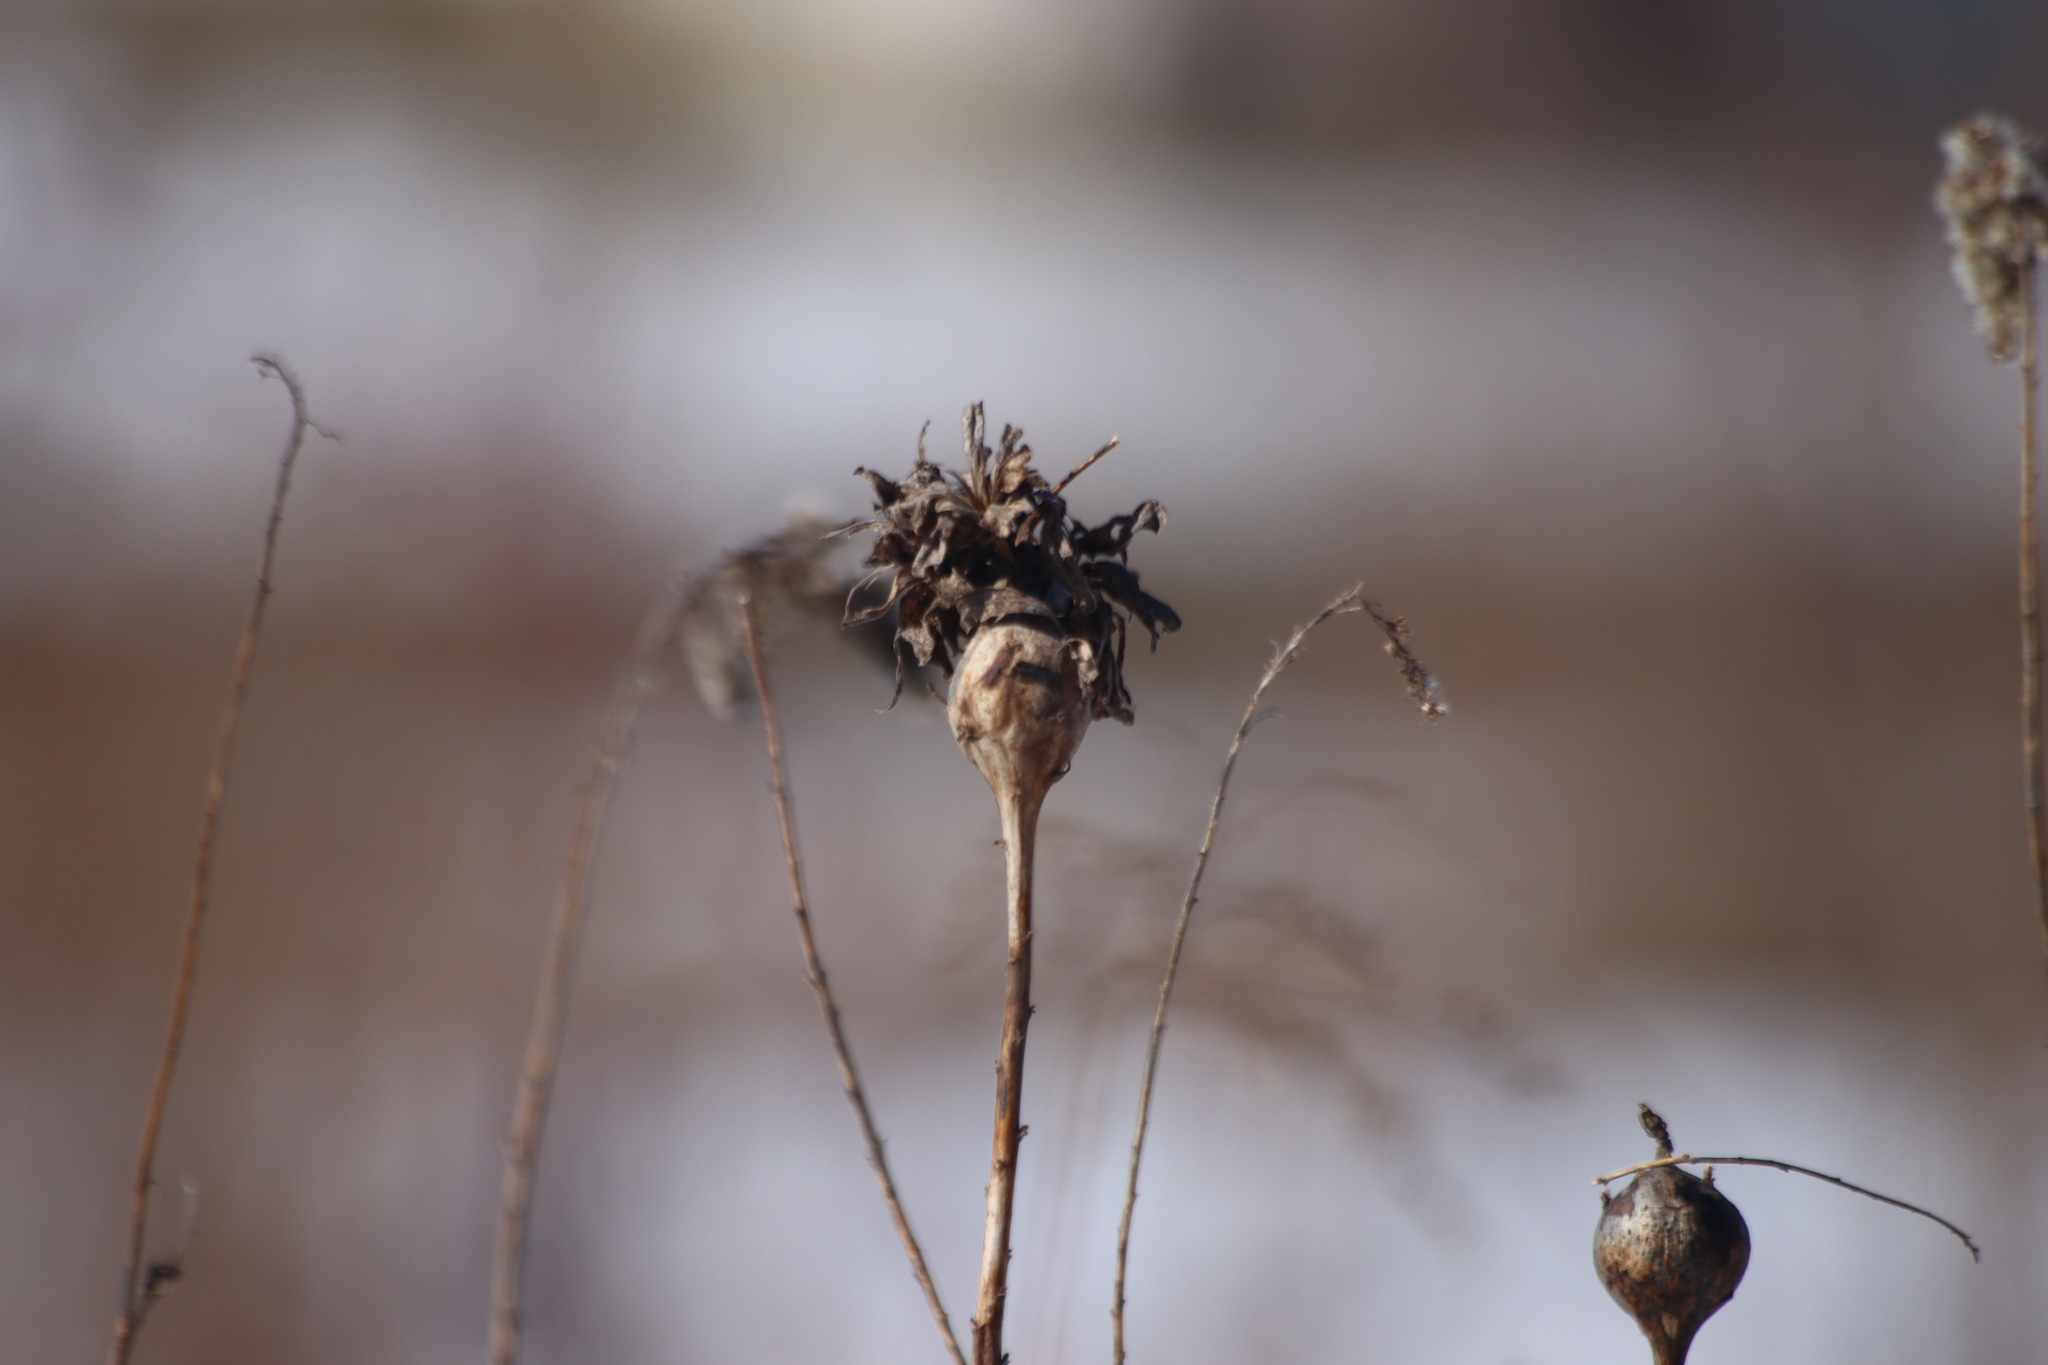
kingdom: Animalia
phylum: Arthropoda
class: Insecta
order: Diptera
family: Tephritidae
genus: Eurosta
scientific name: Eurosta solidaginis
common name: Goldenrod gall fly
